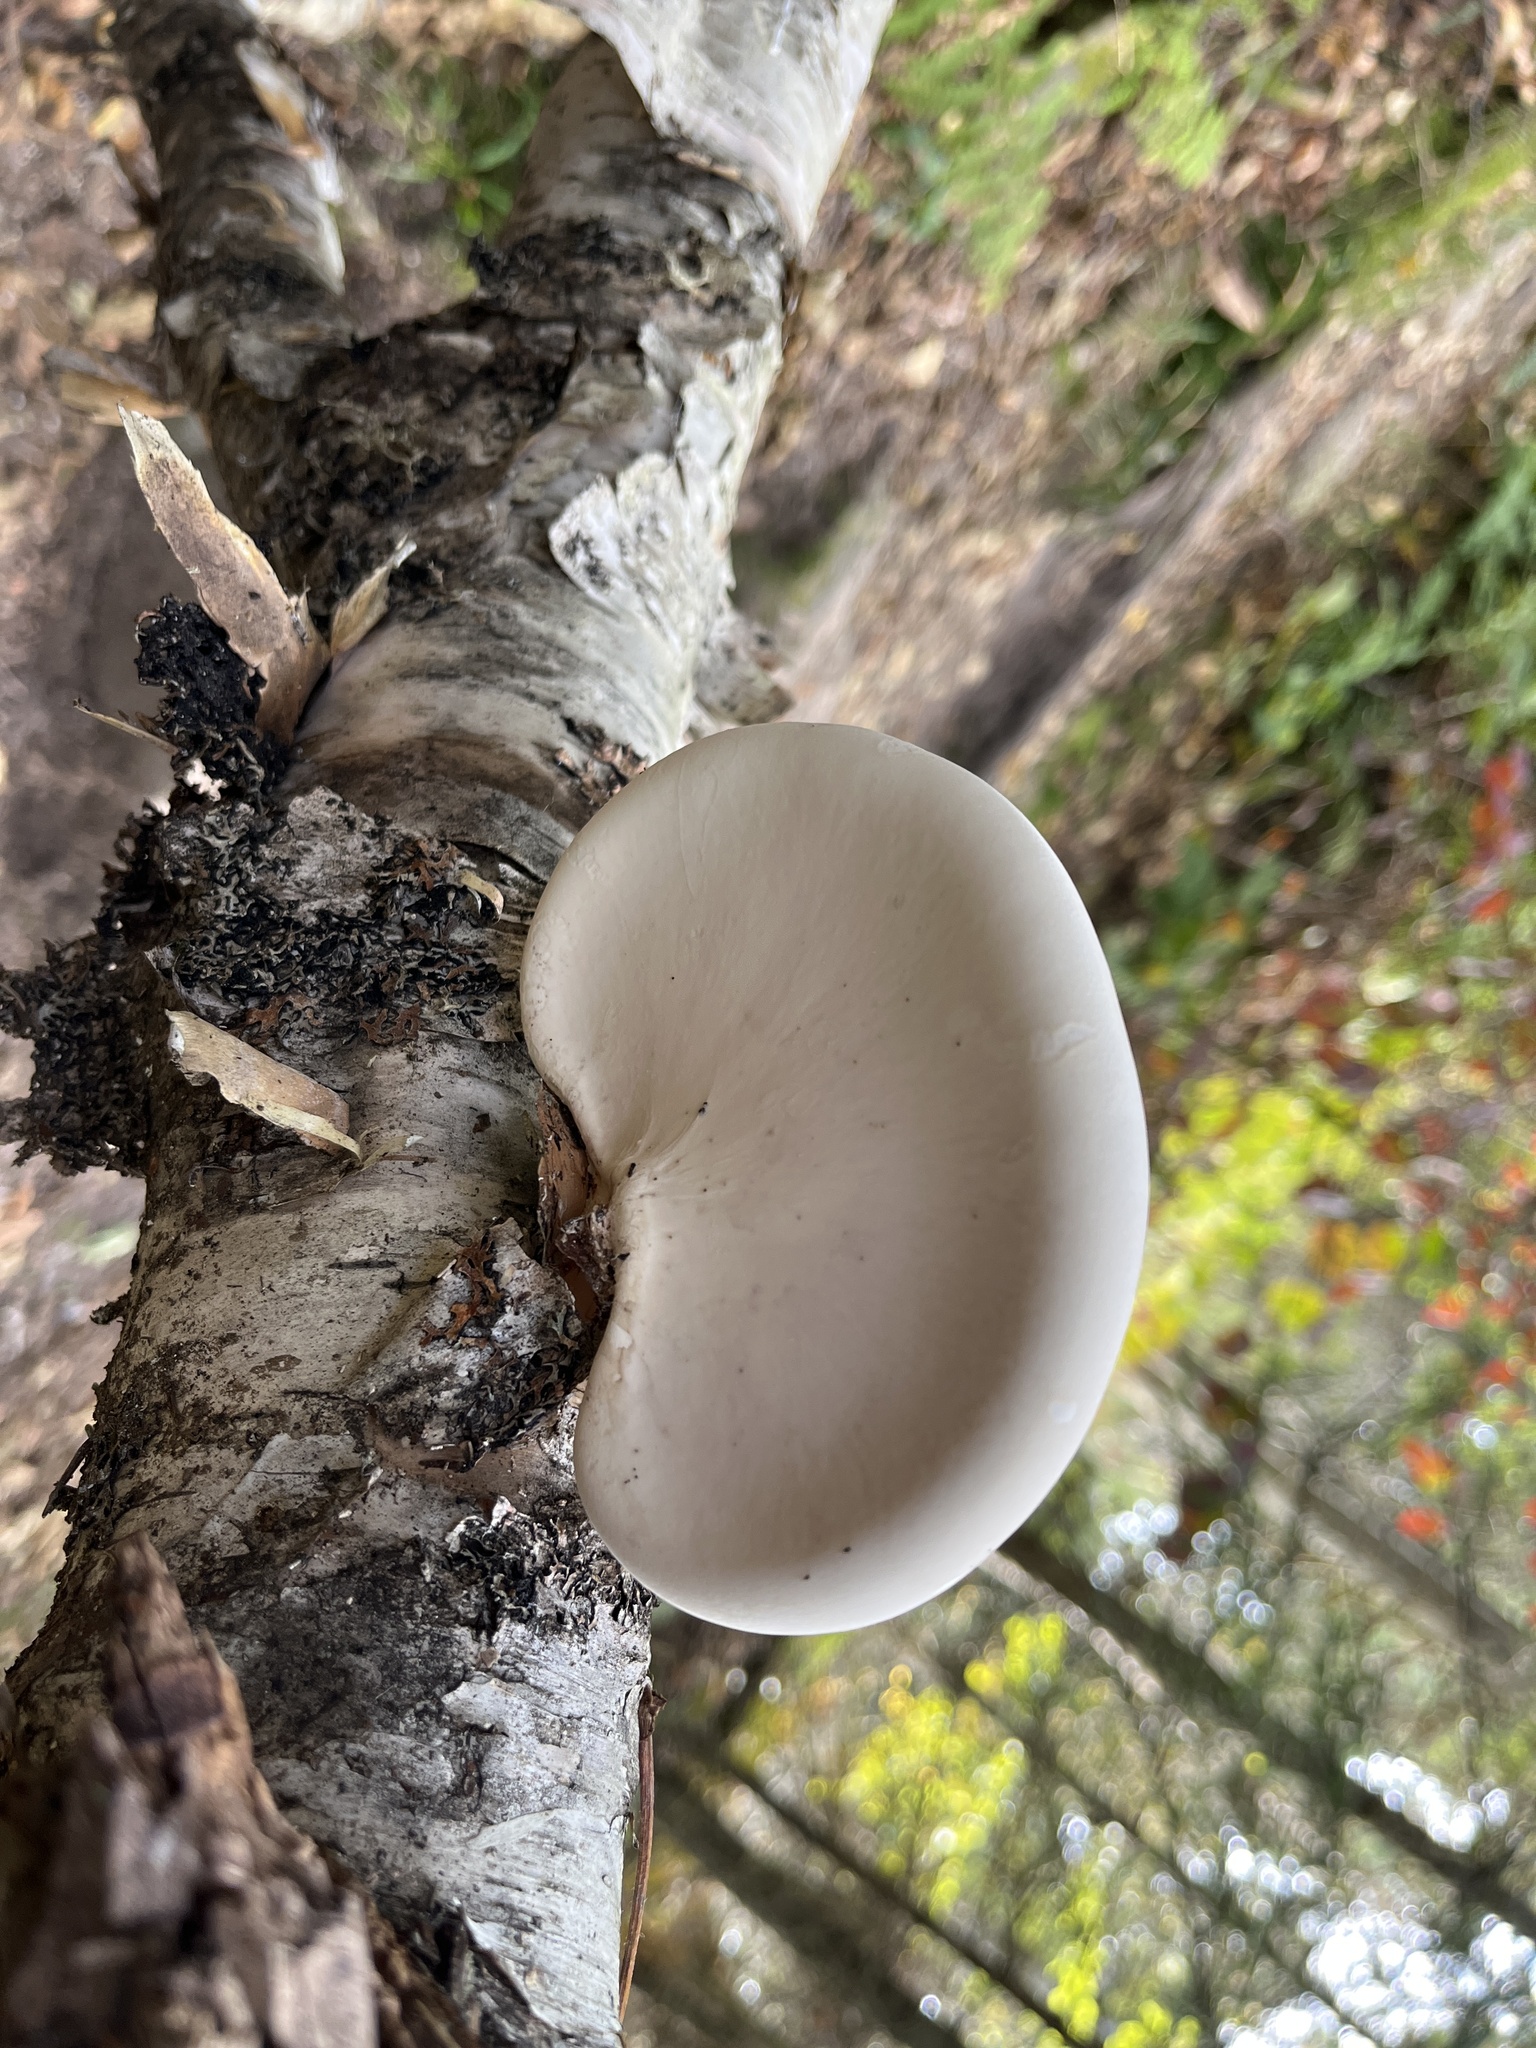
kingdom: Fungi
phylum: Basidiomycota
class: Agaricomycetes
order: Polyporales
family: Fomitopsidaceae
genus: Fomitopsis
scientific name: Fomitopsis betulina
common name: Birch polypore
